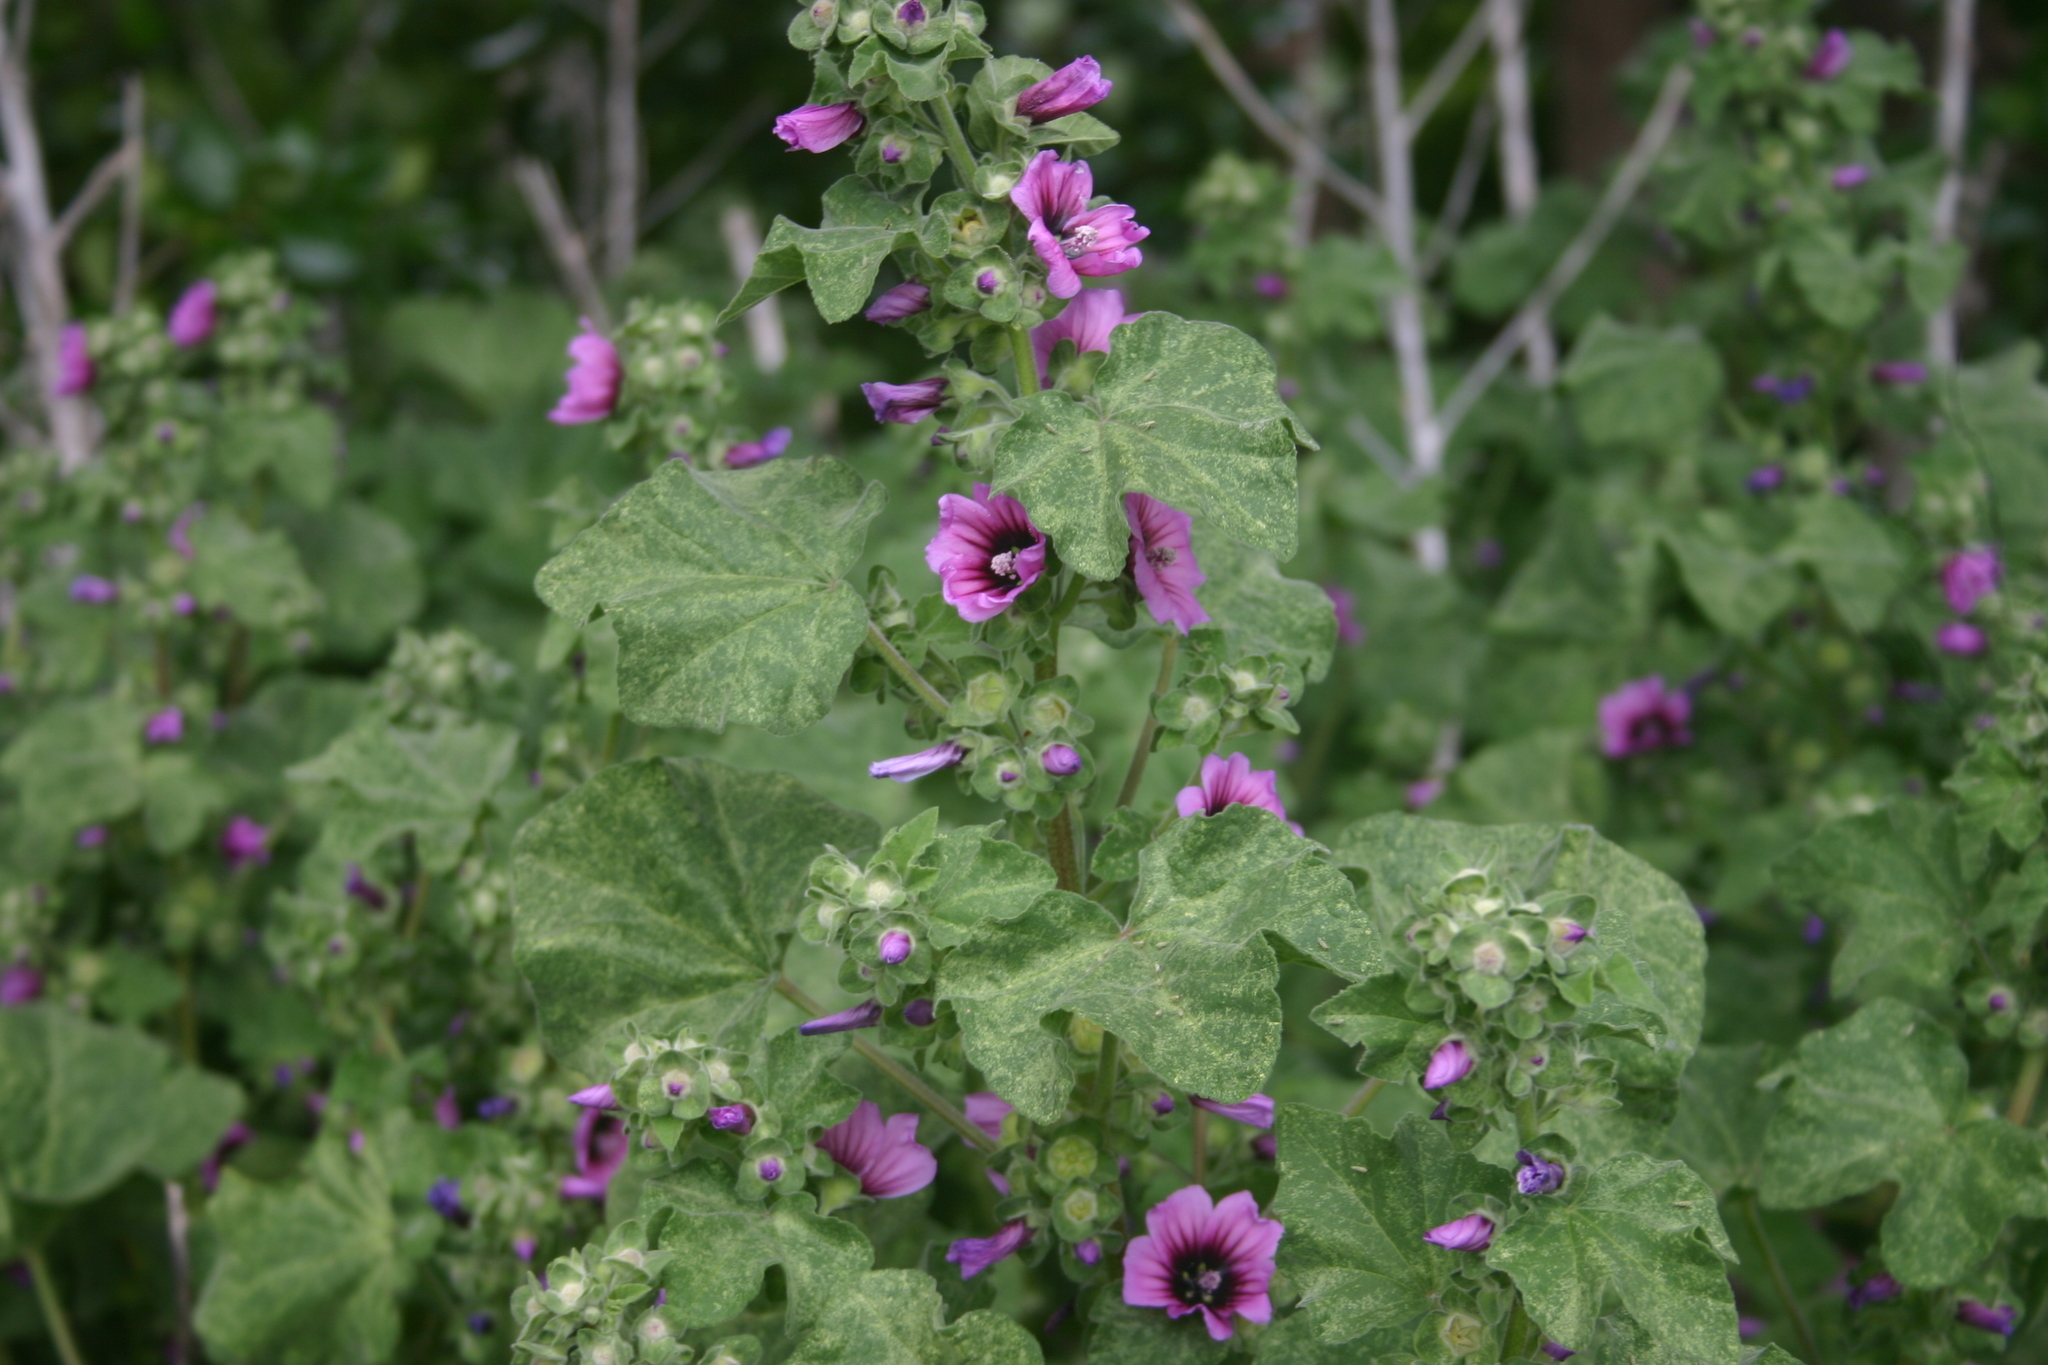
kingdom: Plantae
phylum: Tracheophyta
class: Magnoliopsida
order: Malvales
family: Malvaceae
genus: Malva
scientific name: Malva arborea
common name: Tree mallow
